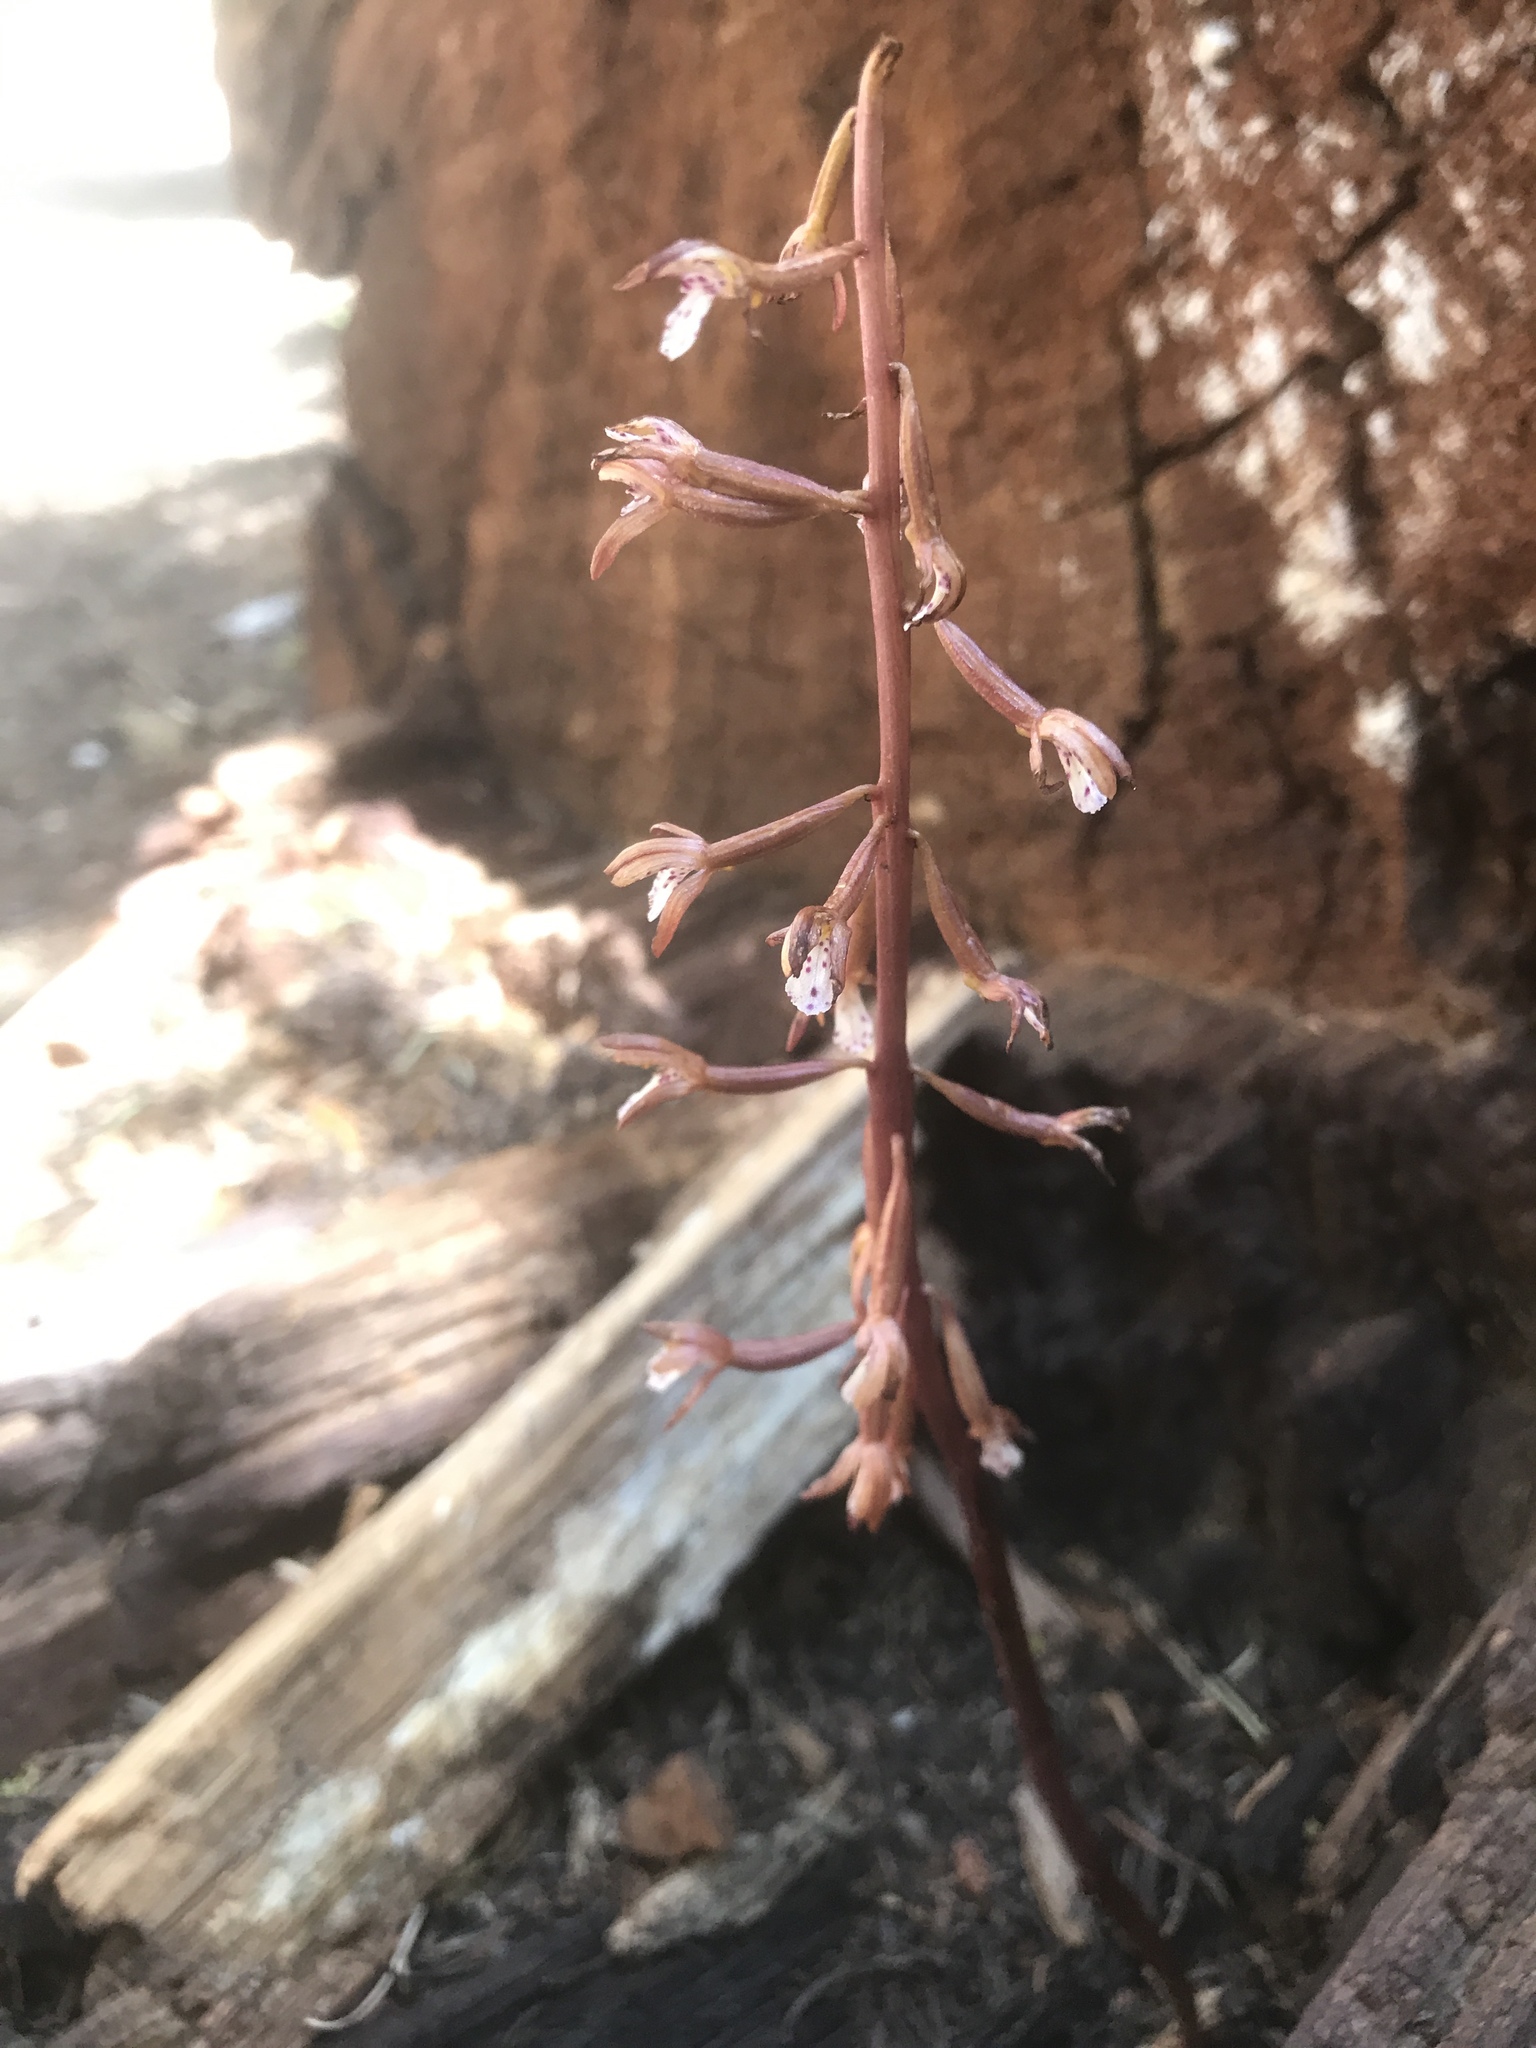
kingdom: Plantae
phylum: Tracheophyta
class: Liliopsida
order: Asparagales
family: Orchidaceae
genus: Corallorhiza
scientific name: Corallorhiza maculata
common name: Spotted coralroot
